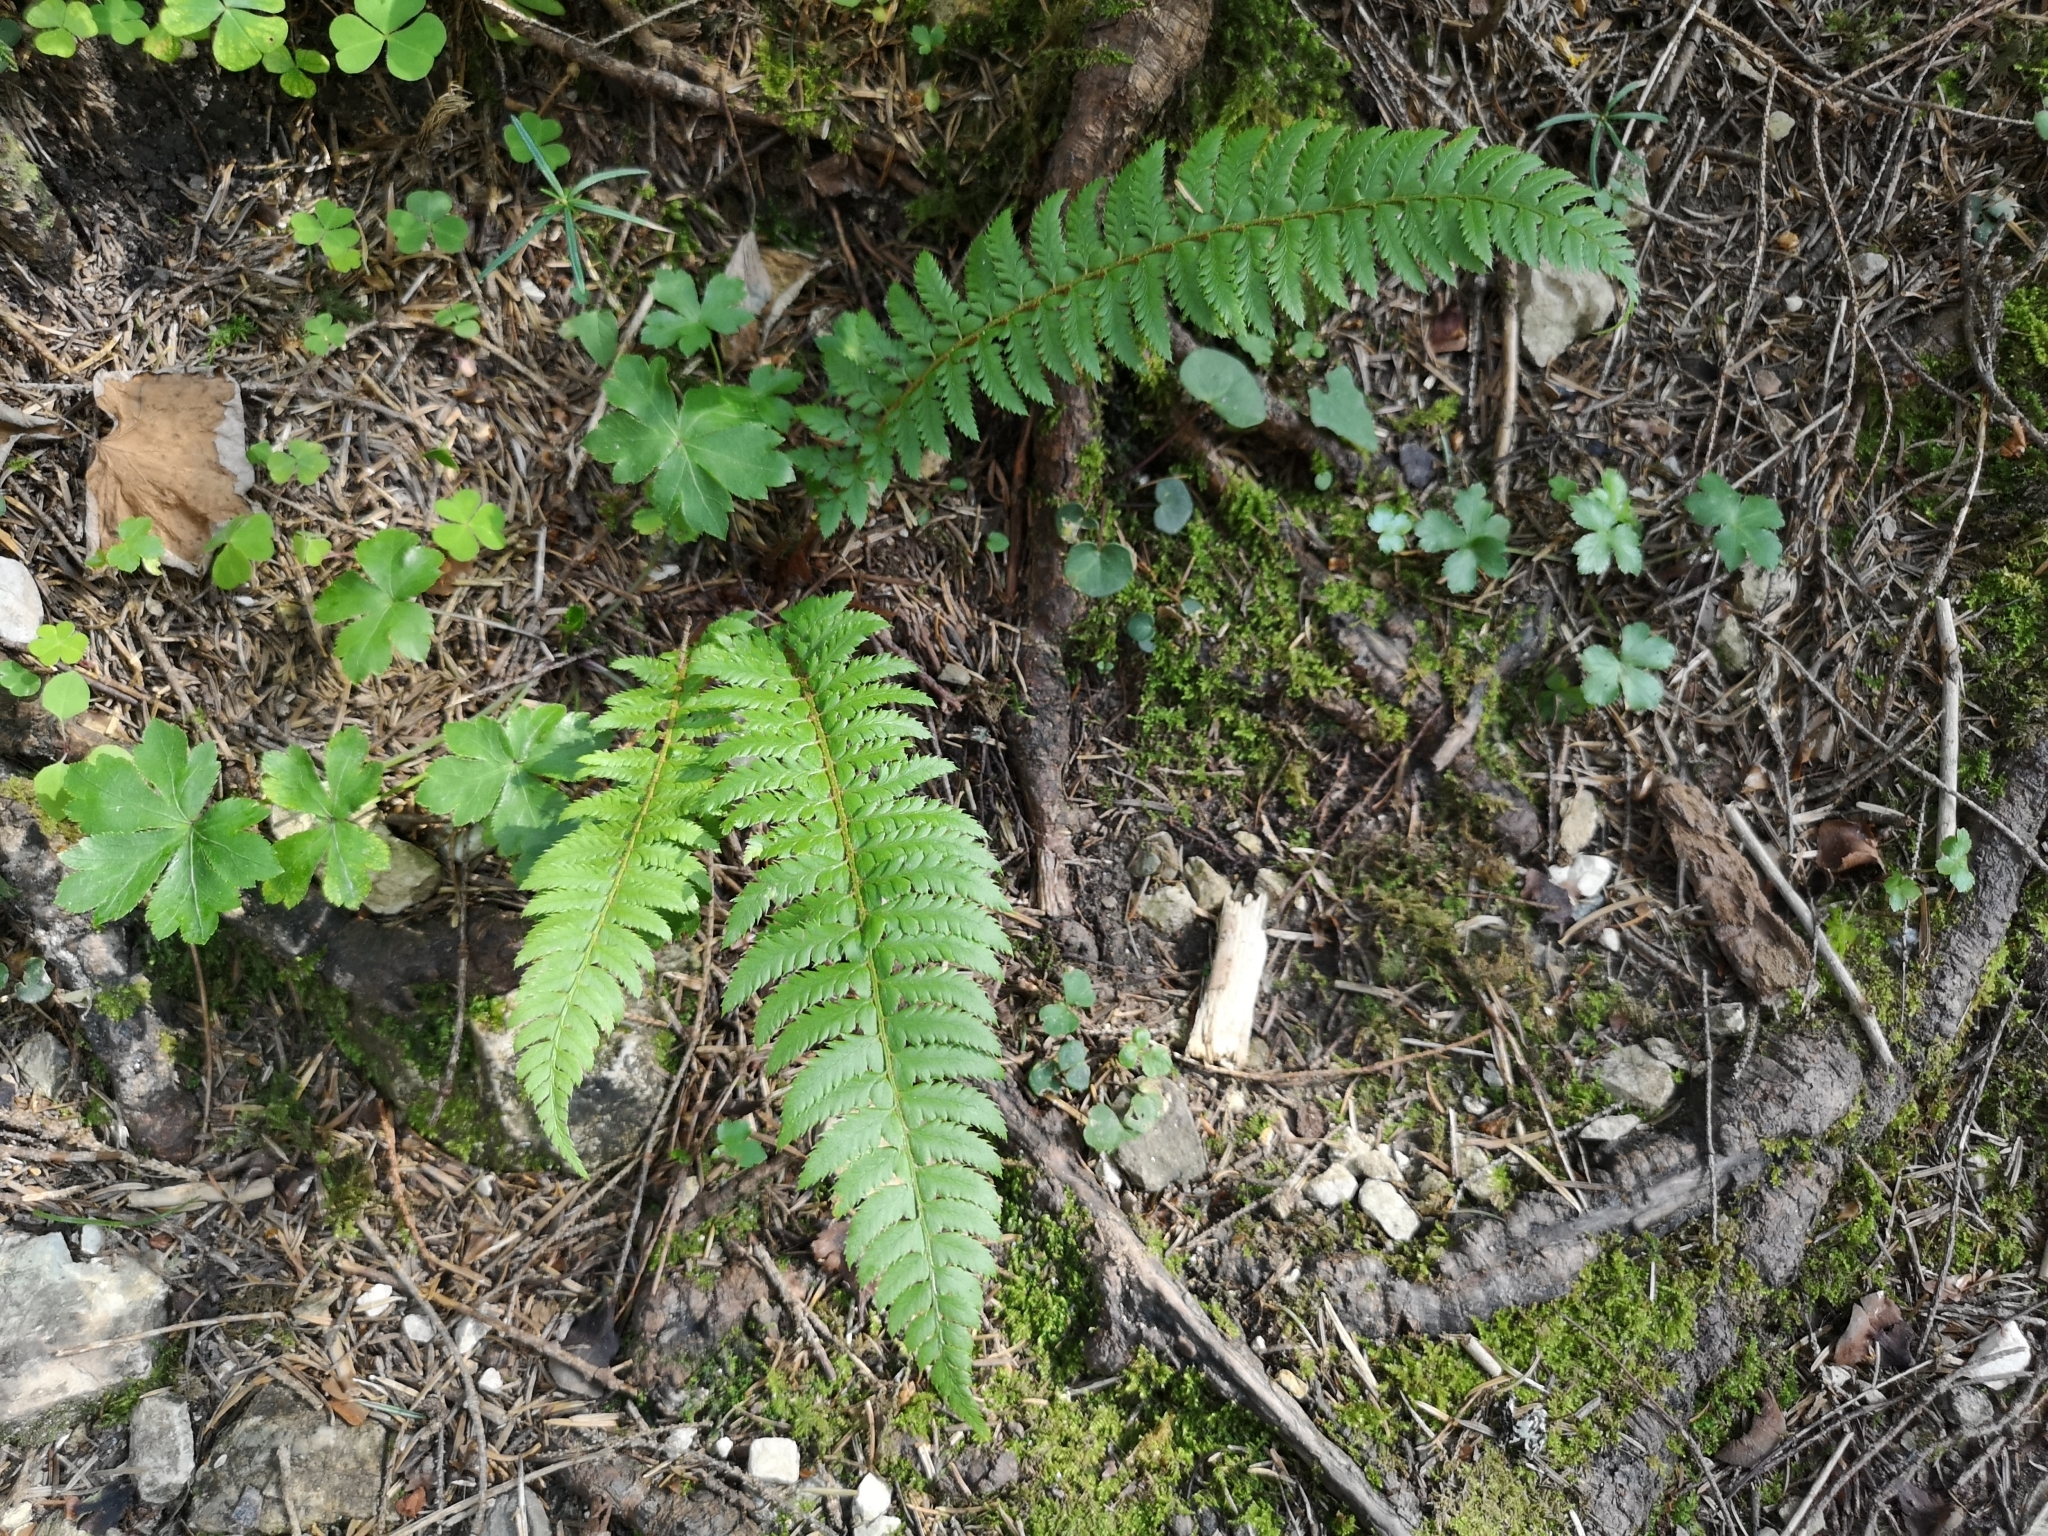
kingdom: Plantae
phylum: Tracheophyta
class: Polypodiopsida
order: Polypodiales
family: Dryopteridaceae
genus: Polystichum
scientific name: Polystichum aculeatum
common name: Hard shield-fern
